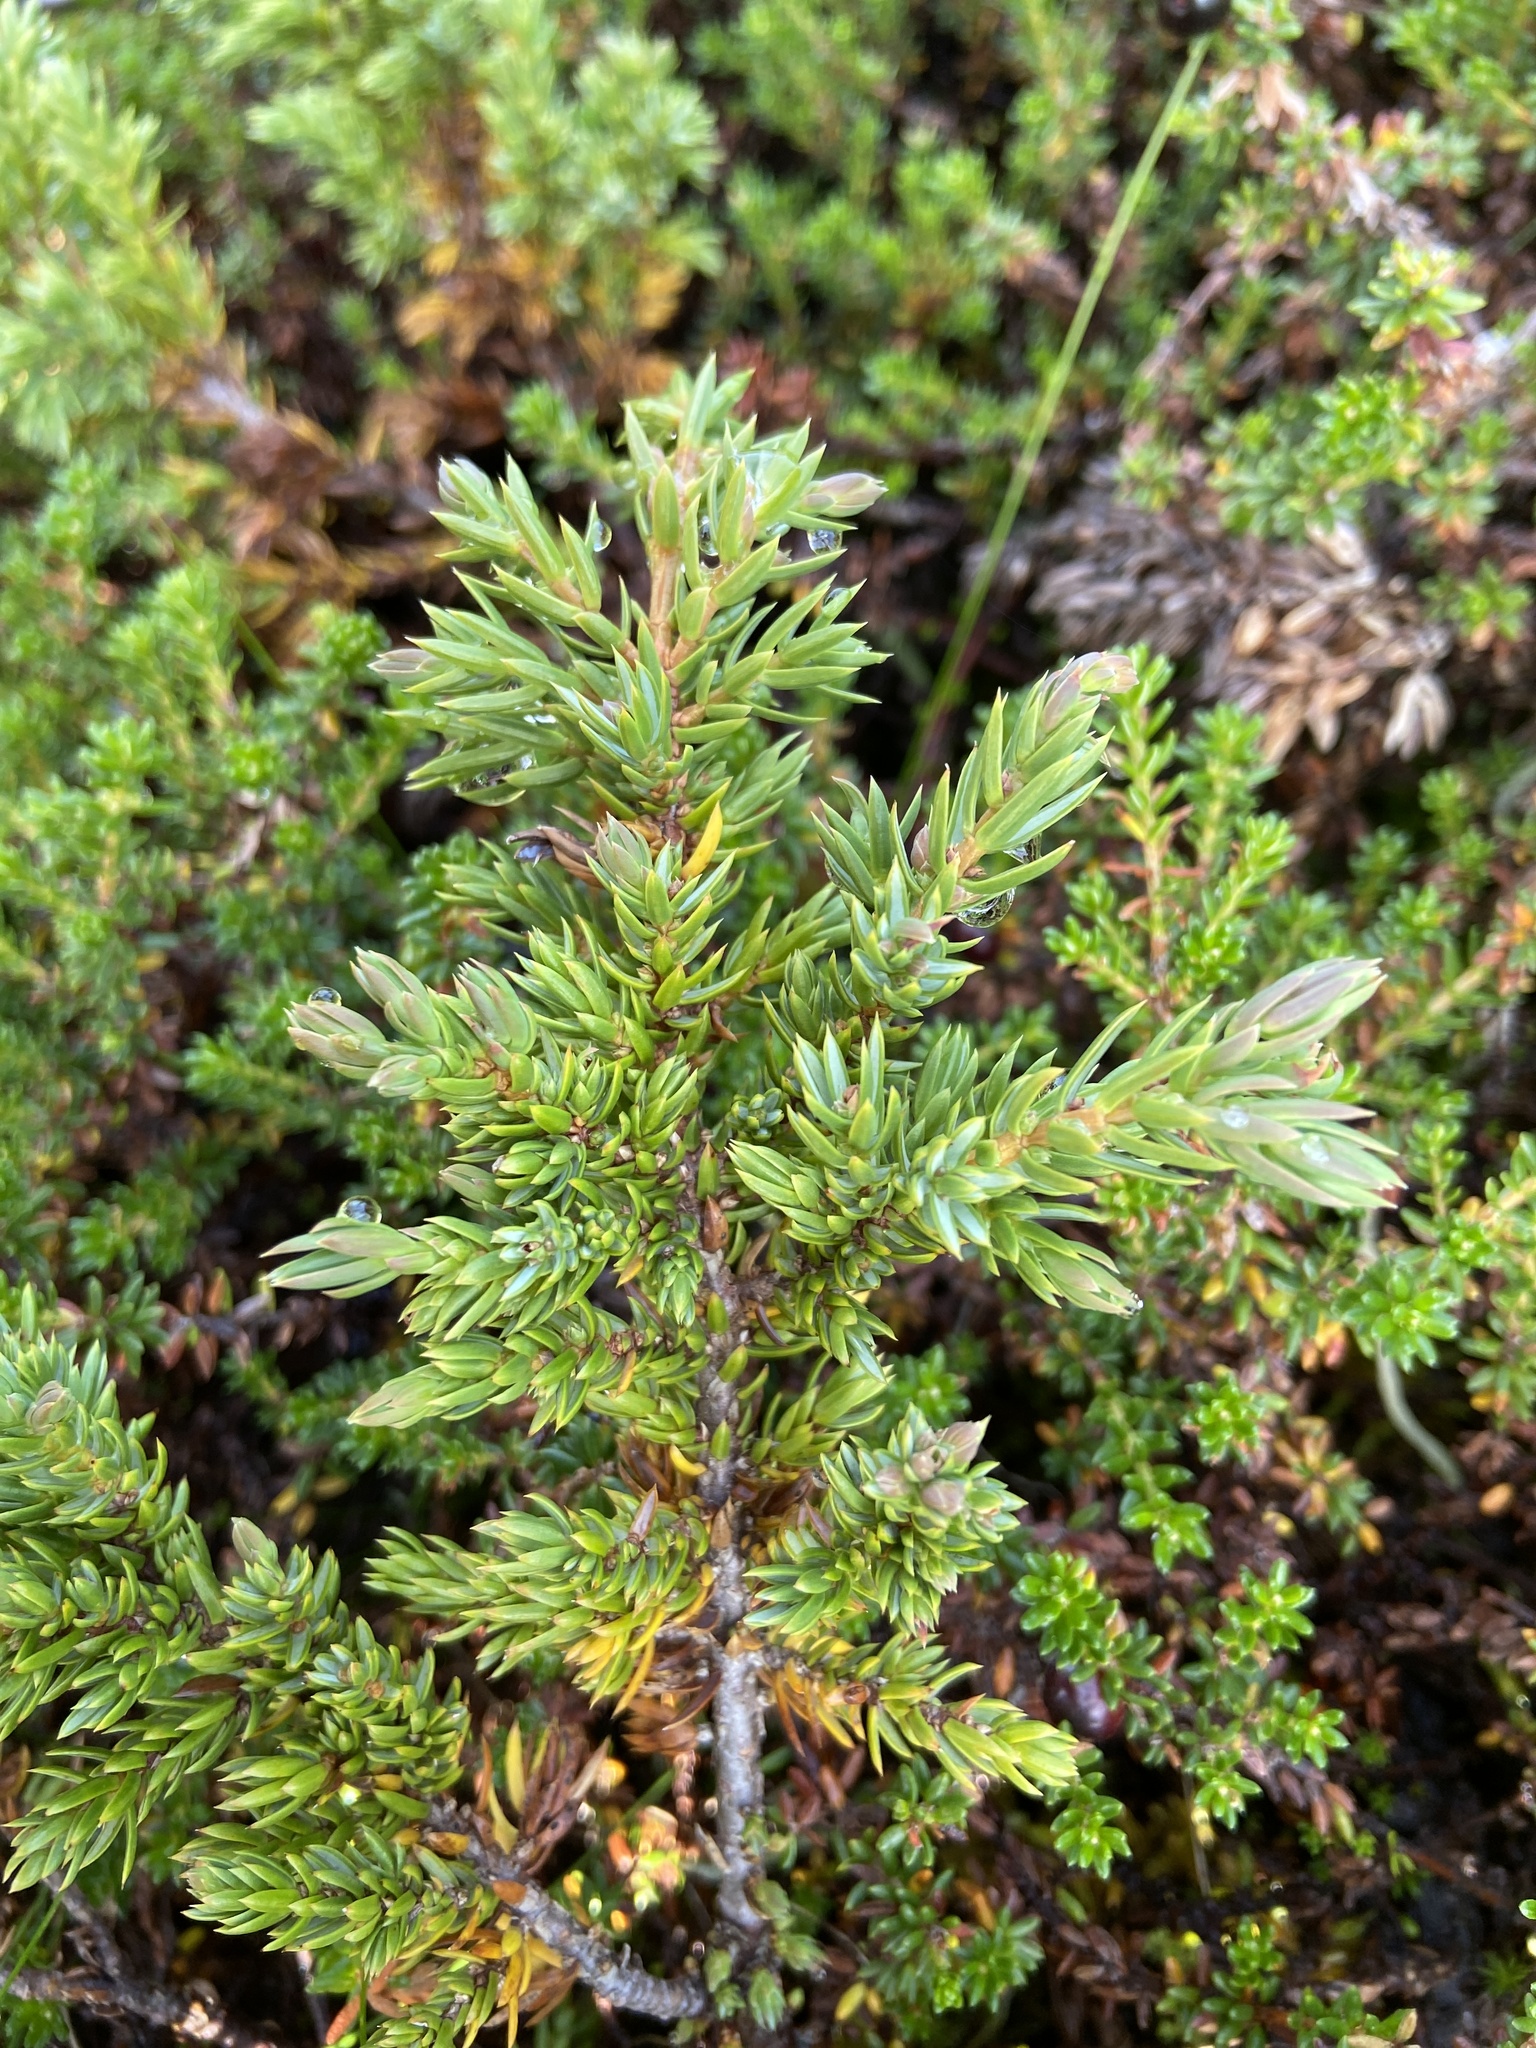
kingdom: Plantae
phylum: Tracheophyta
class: Pinopsida
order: Pinales
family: Cupressaceae
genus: Juniperus
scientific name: Juniperus communis
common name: Common juniper
